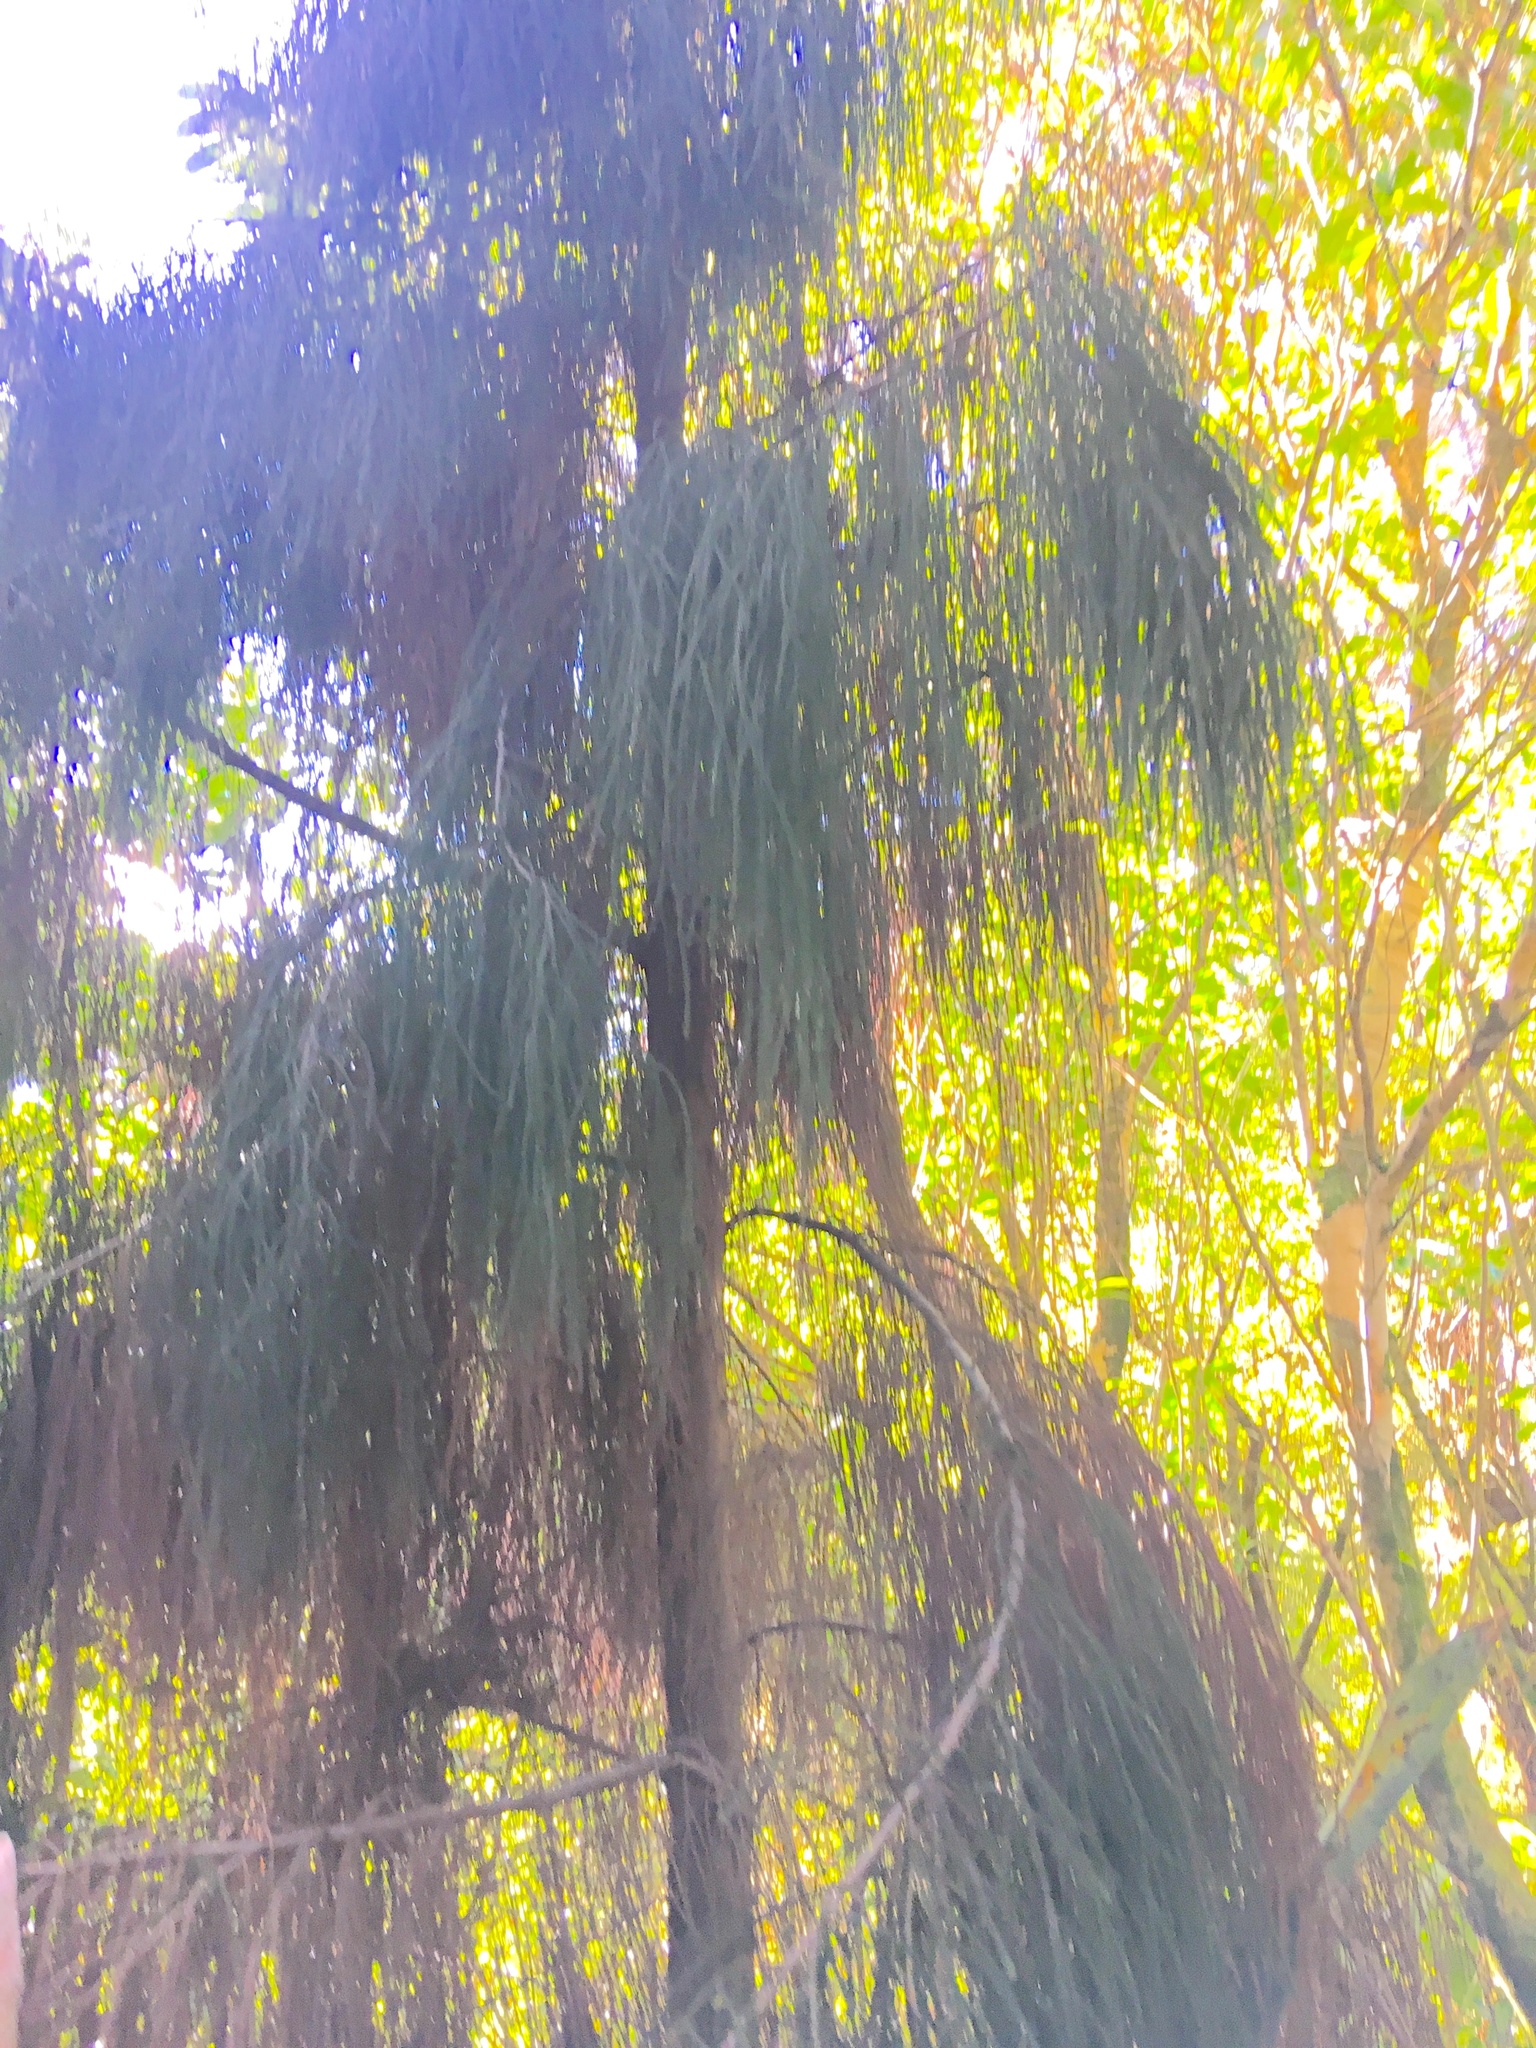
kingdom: Plantae
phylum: Tracheophyta
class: Pinopsida
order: Pinales
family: Podocarpaceae
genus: Dacrydium
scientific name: Dacrydium cupressinum
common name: Red pine
